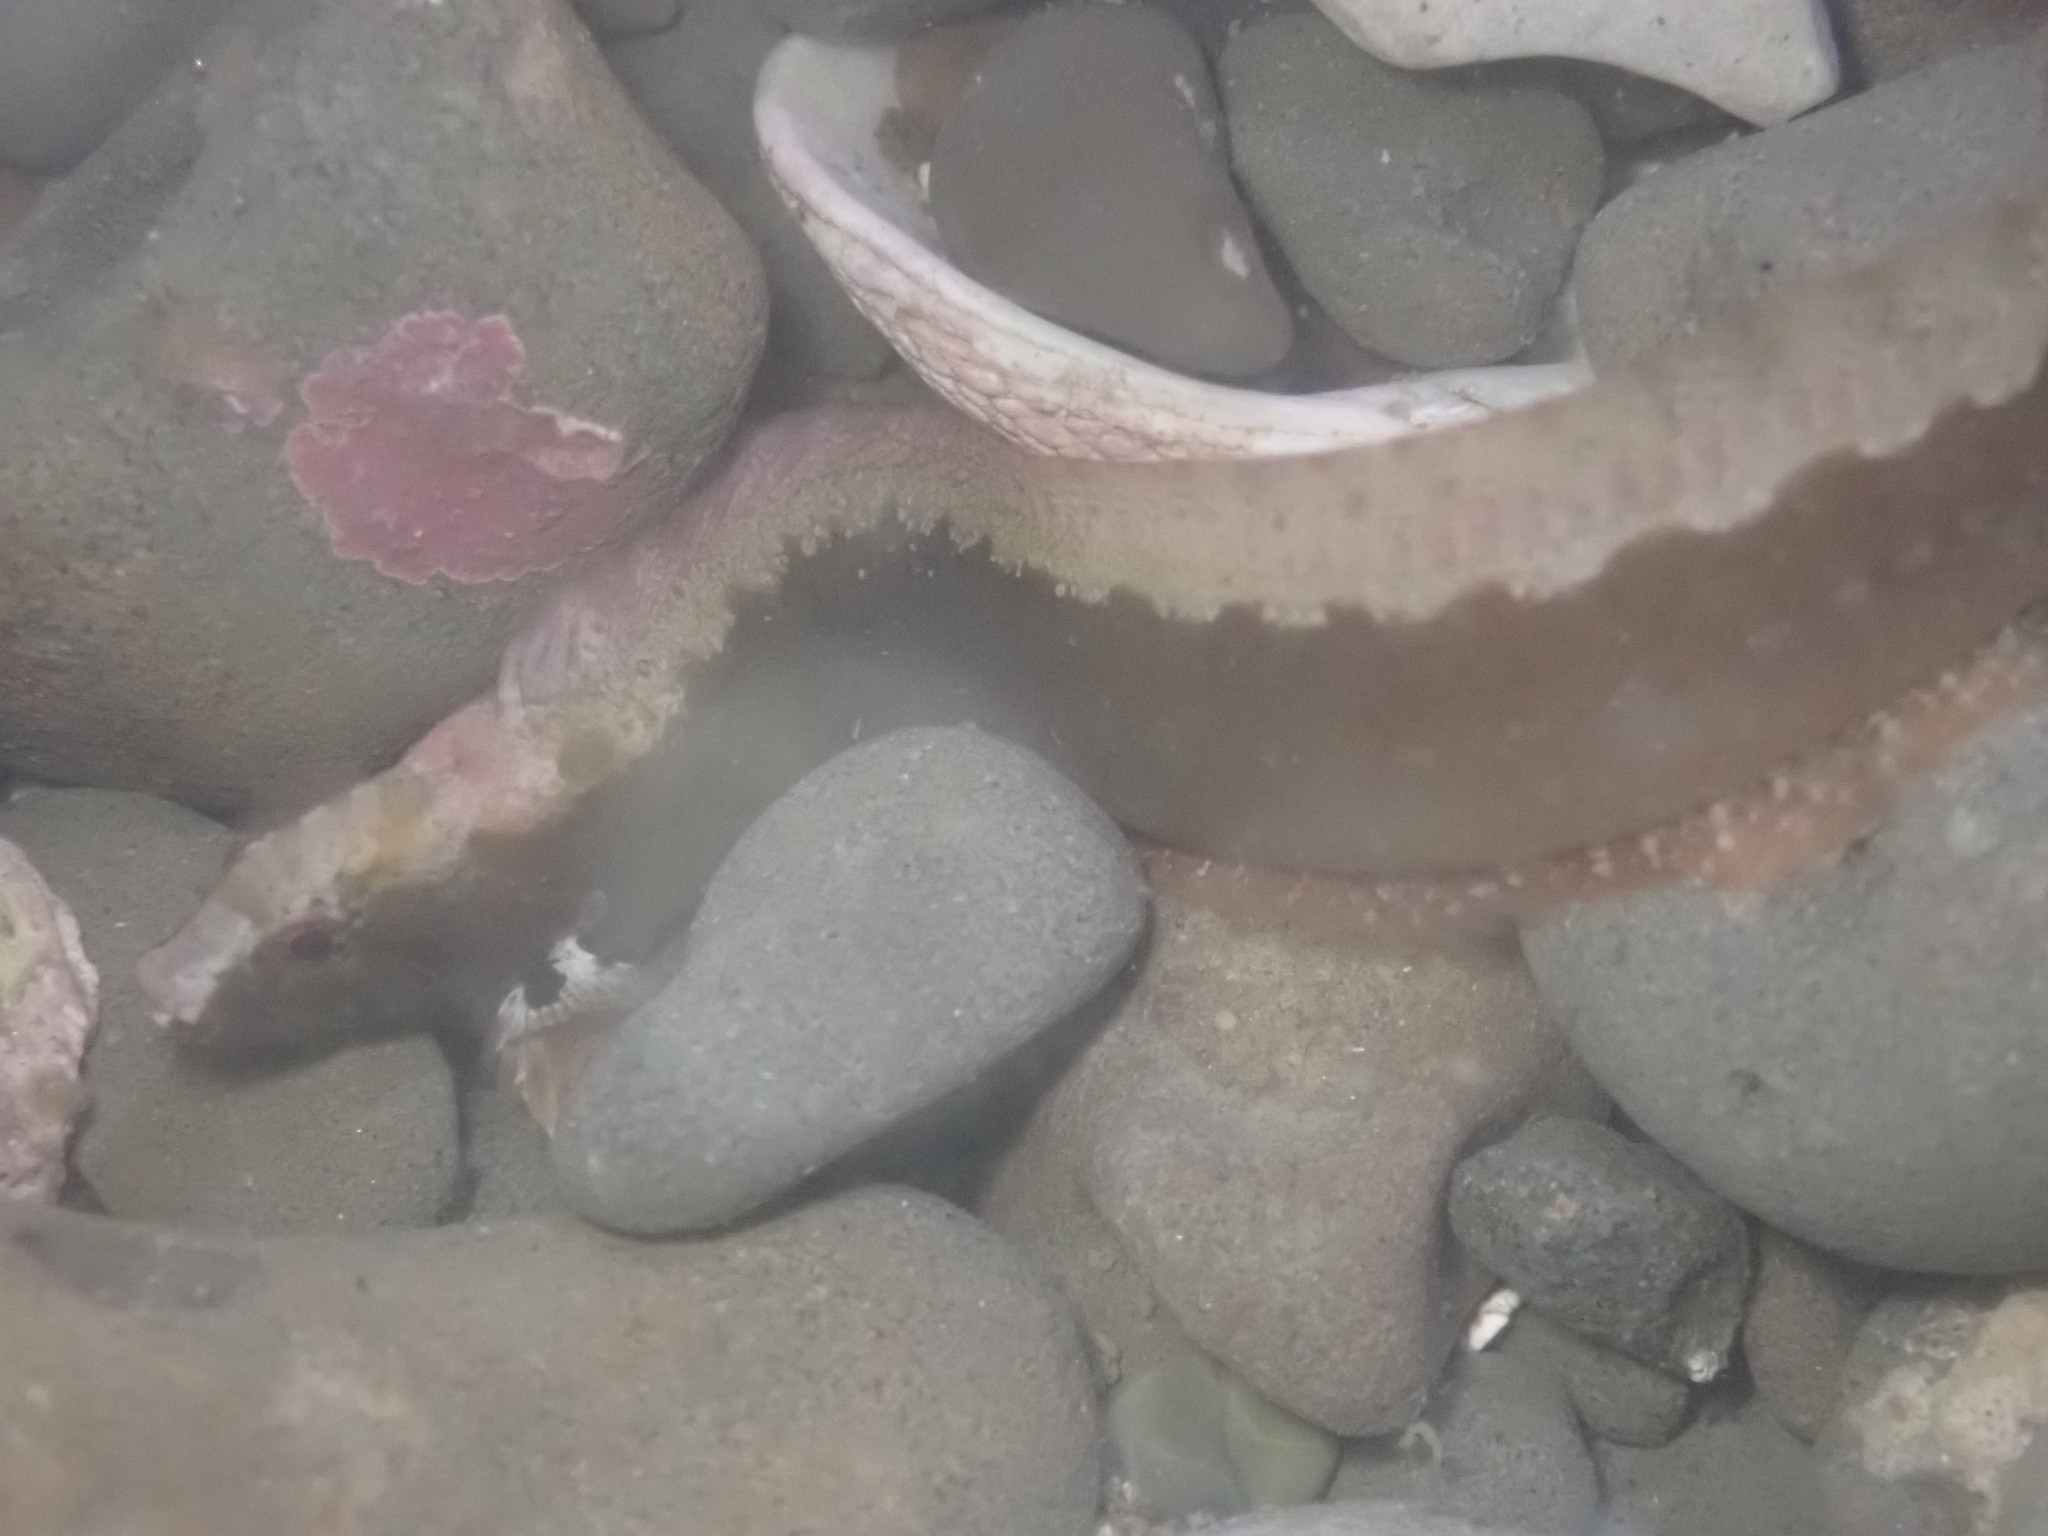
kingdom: Animalia
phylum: Chordata
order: Perciformes
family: Stichaeidae
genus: Anoplarchus
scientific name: Anoplarchus purpurescens
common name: High cockscomb
